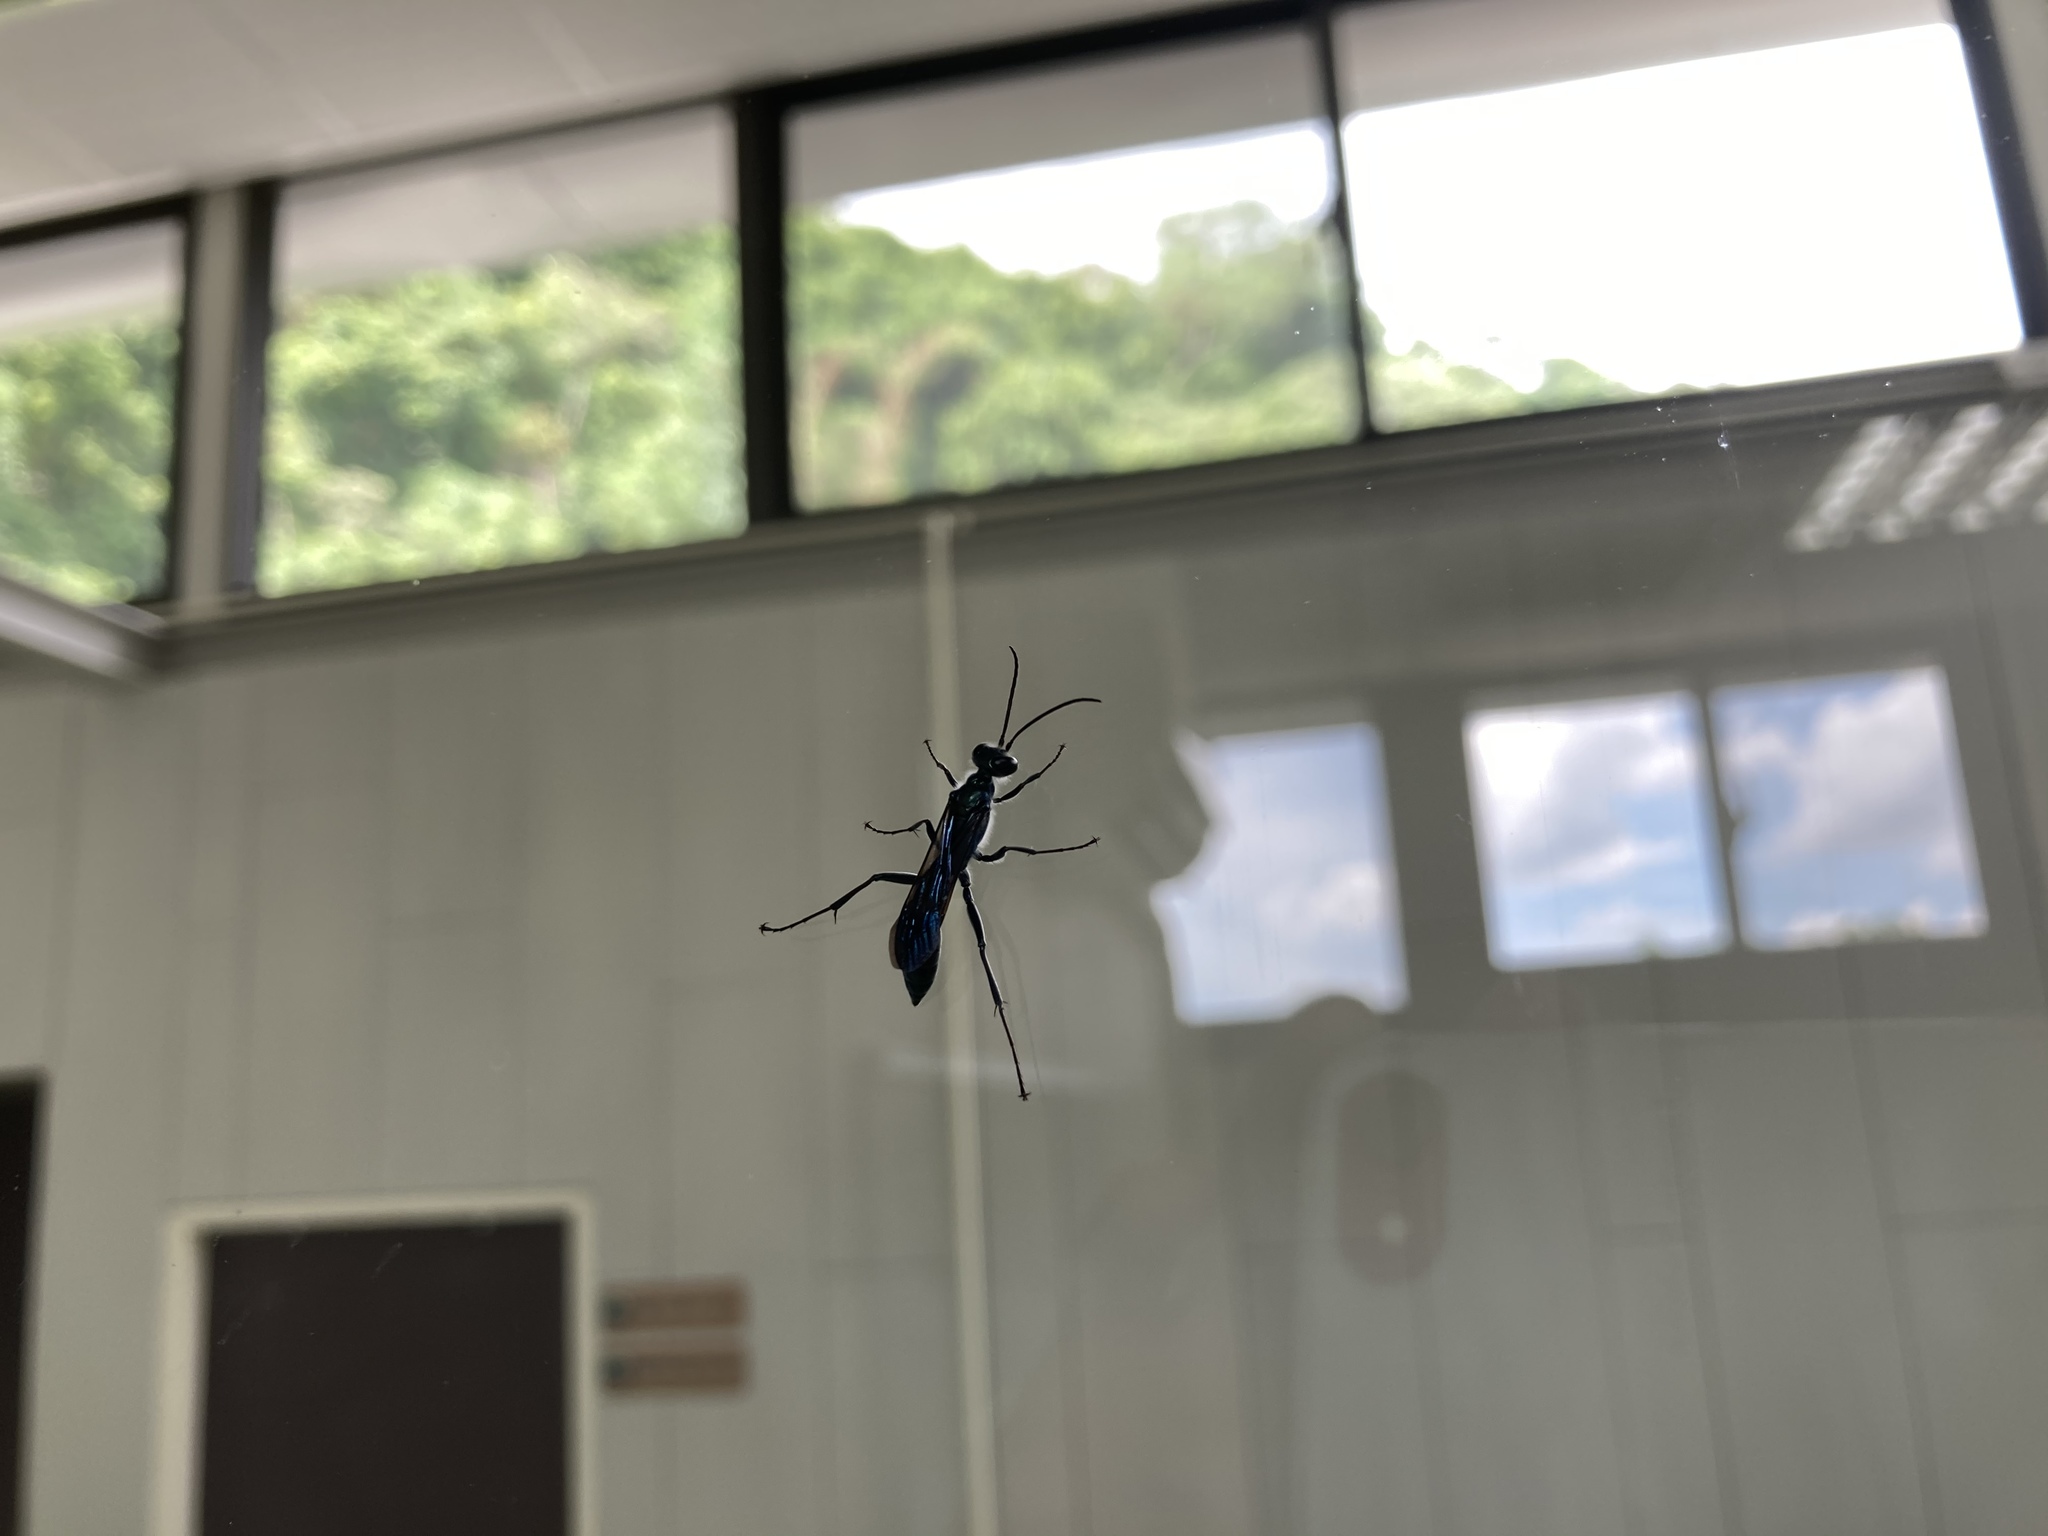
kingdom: Animalia
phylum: Arthropoda
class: Insecta
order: Hymenoptera
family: Sphecidae
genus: Chalybion
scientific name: Chalybion japonicum
